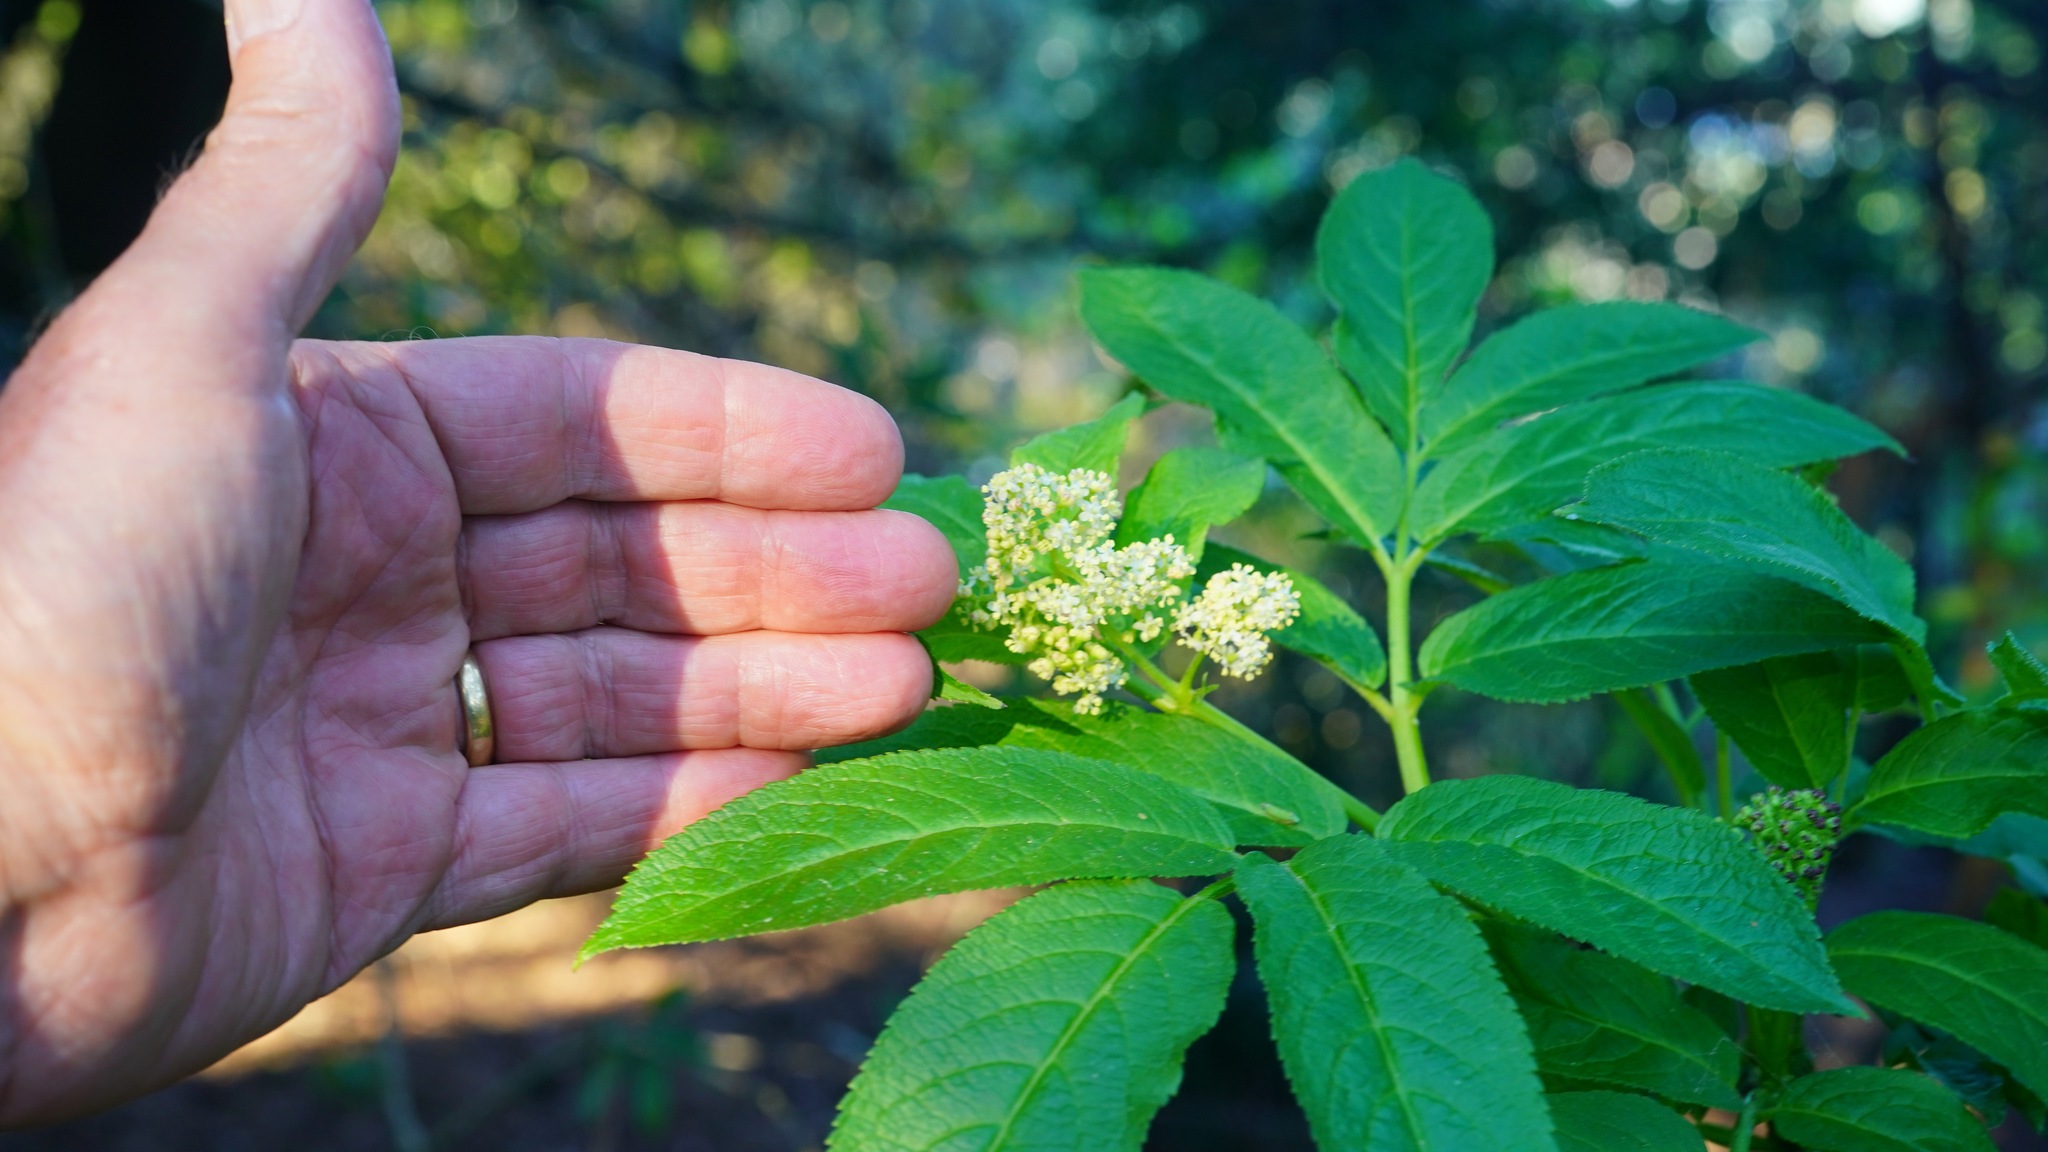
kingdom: Plantae
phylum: Tracheophyta
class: Magnoliopsida
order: Dipsacales
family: Viburnaceae
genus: Sambucus
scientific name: Sambucus racemosa
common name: Red-berried elder
